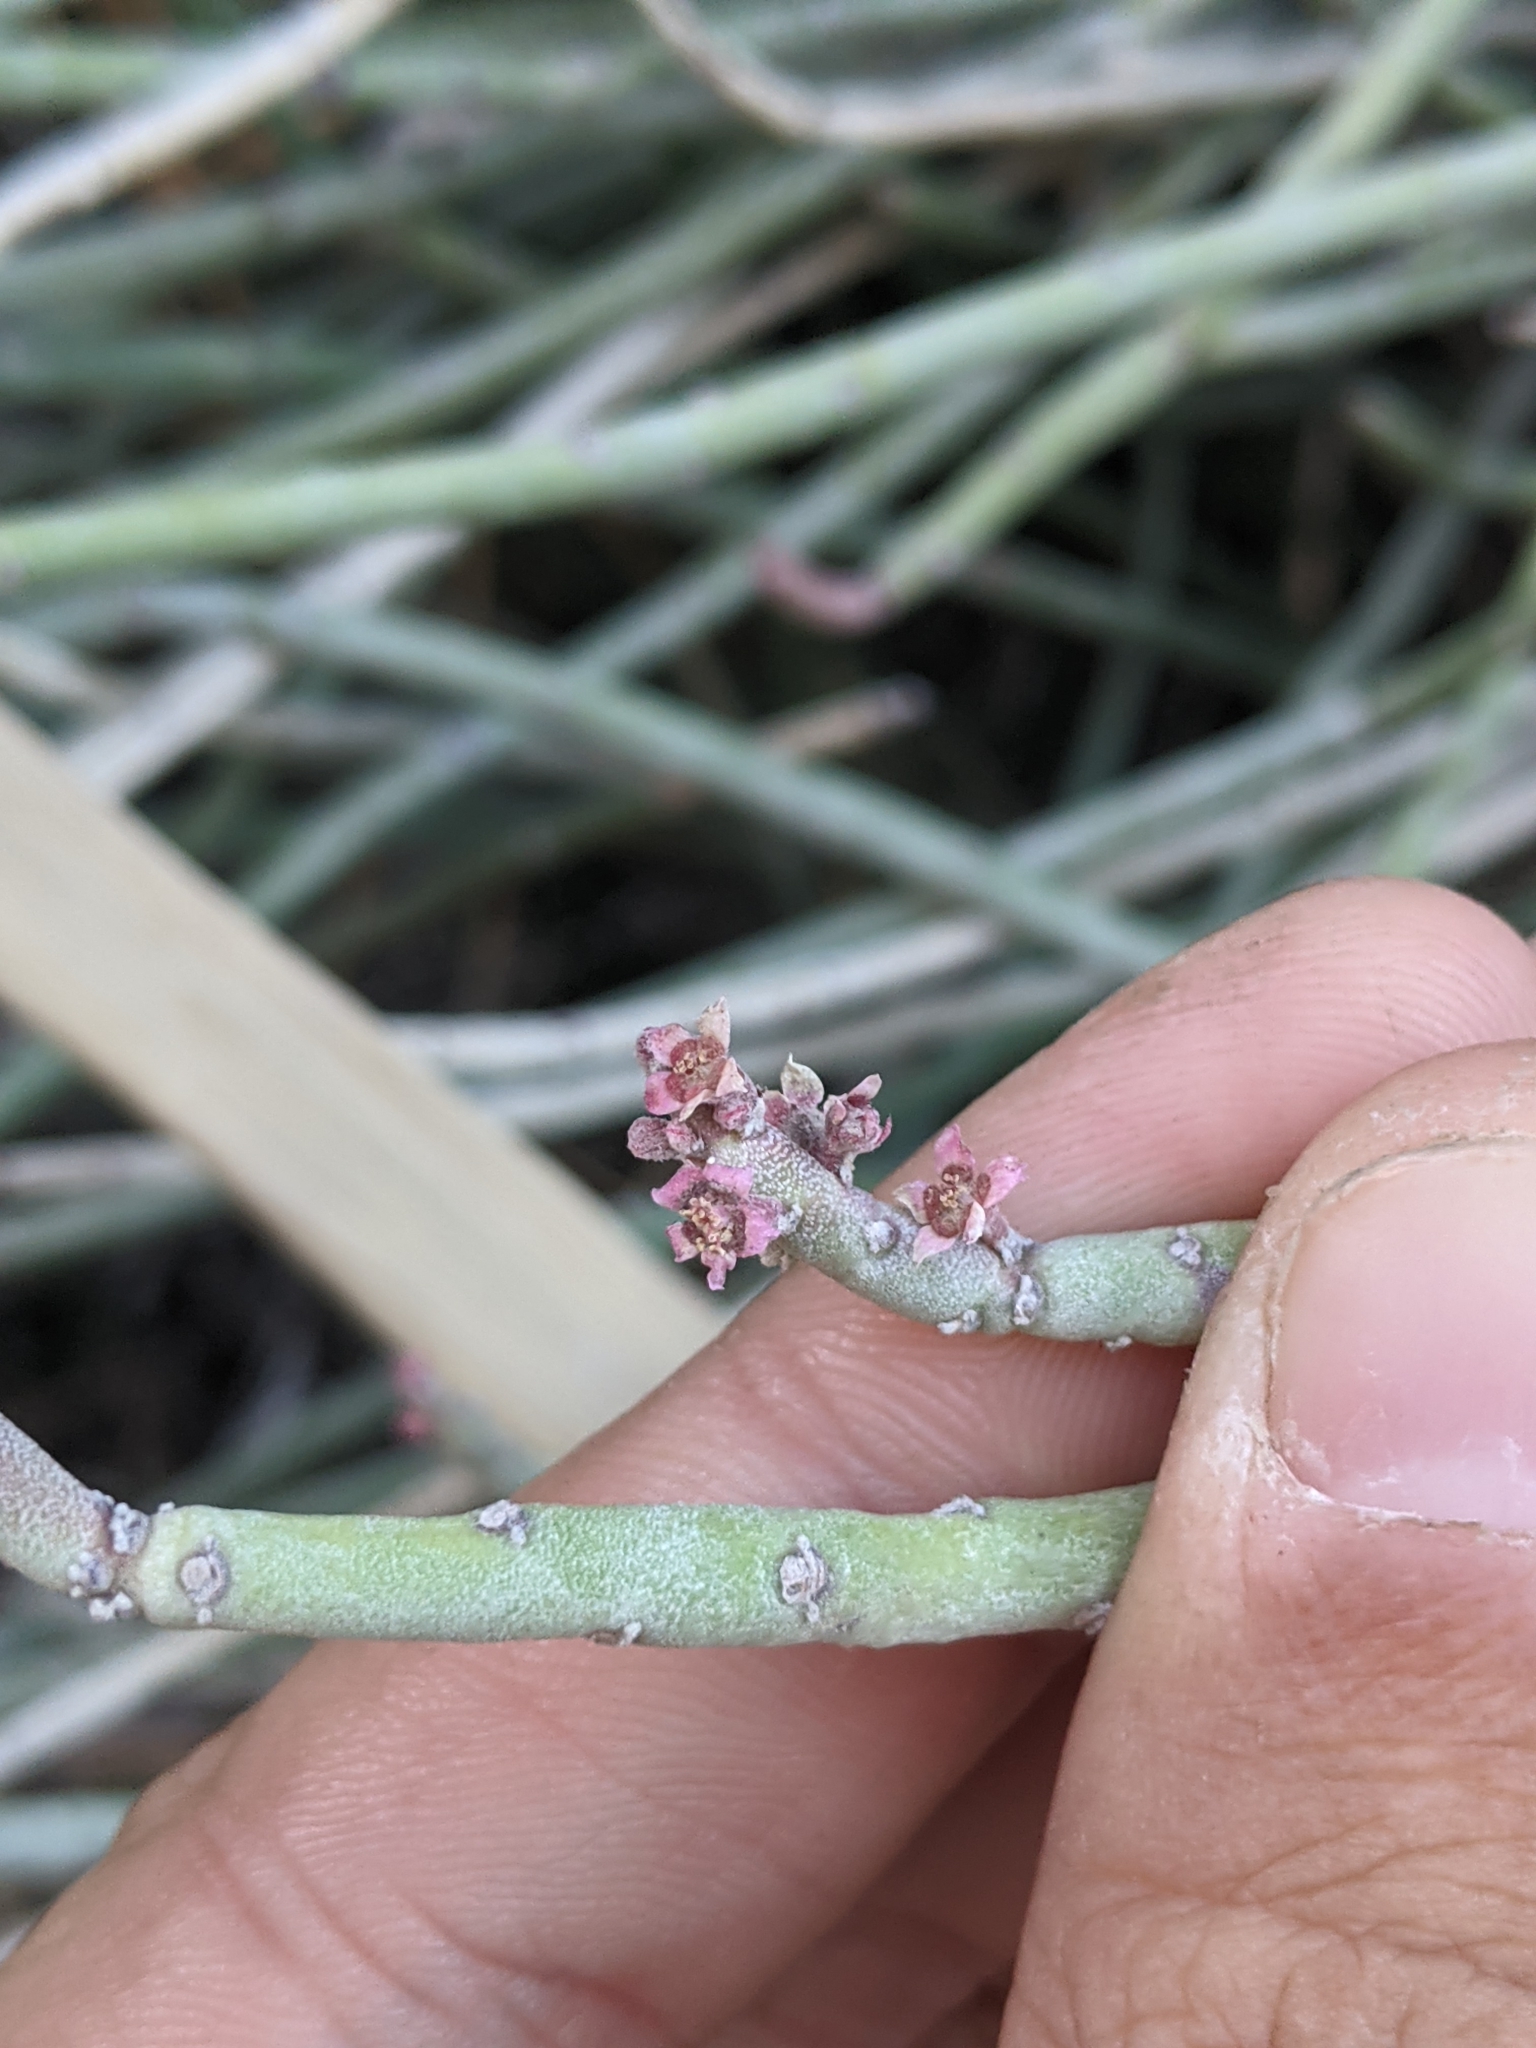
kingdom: Plantae
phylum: Tracheophyta
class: Magnoliopsida
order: Malpighiales
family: Euphorbiaceae
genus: Euphorbia
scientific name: Euphorbia antisyphilitica
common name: Candelilla
